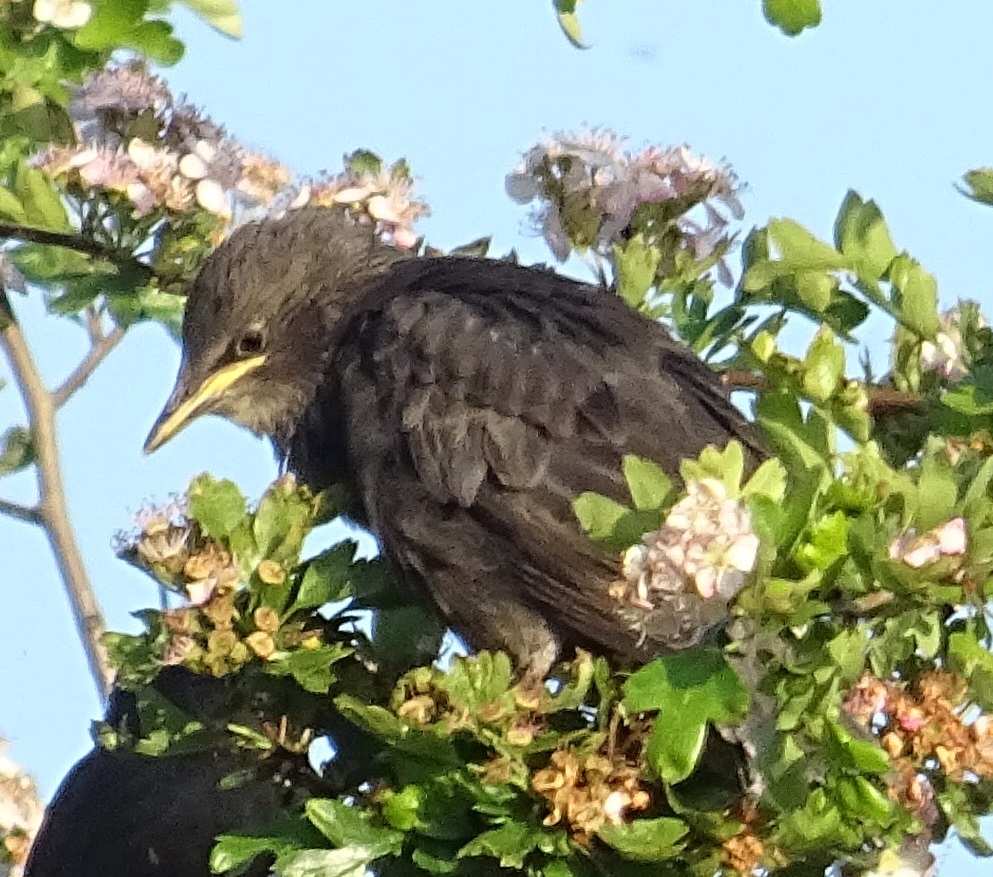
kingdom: Animalia
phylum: Chordata
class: Aves
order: Passeriformes
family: Sturnidae
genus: Sturnus
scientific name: Sturnus vulgaris
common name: Common starling
